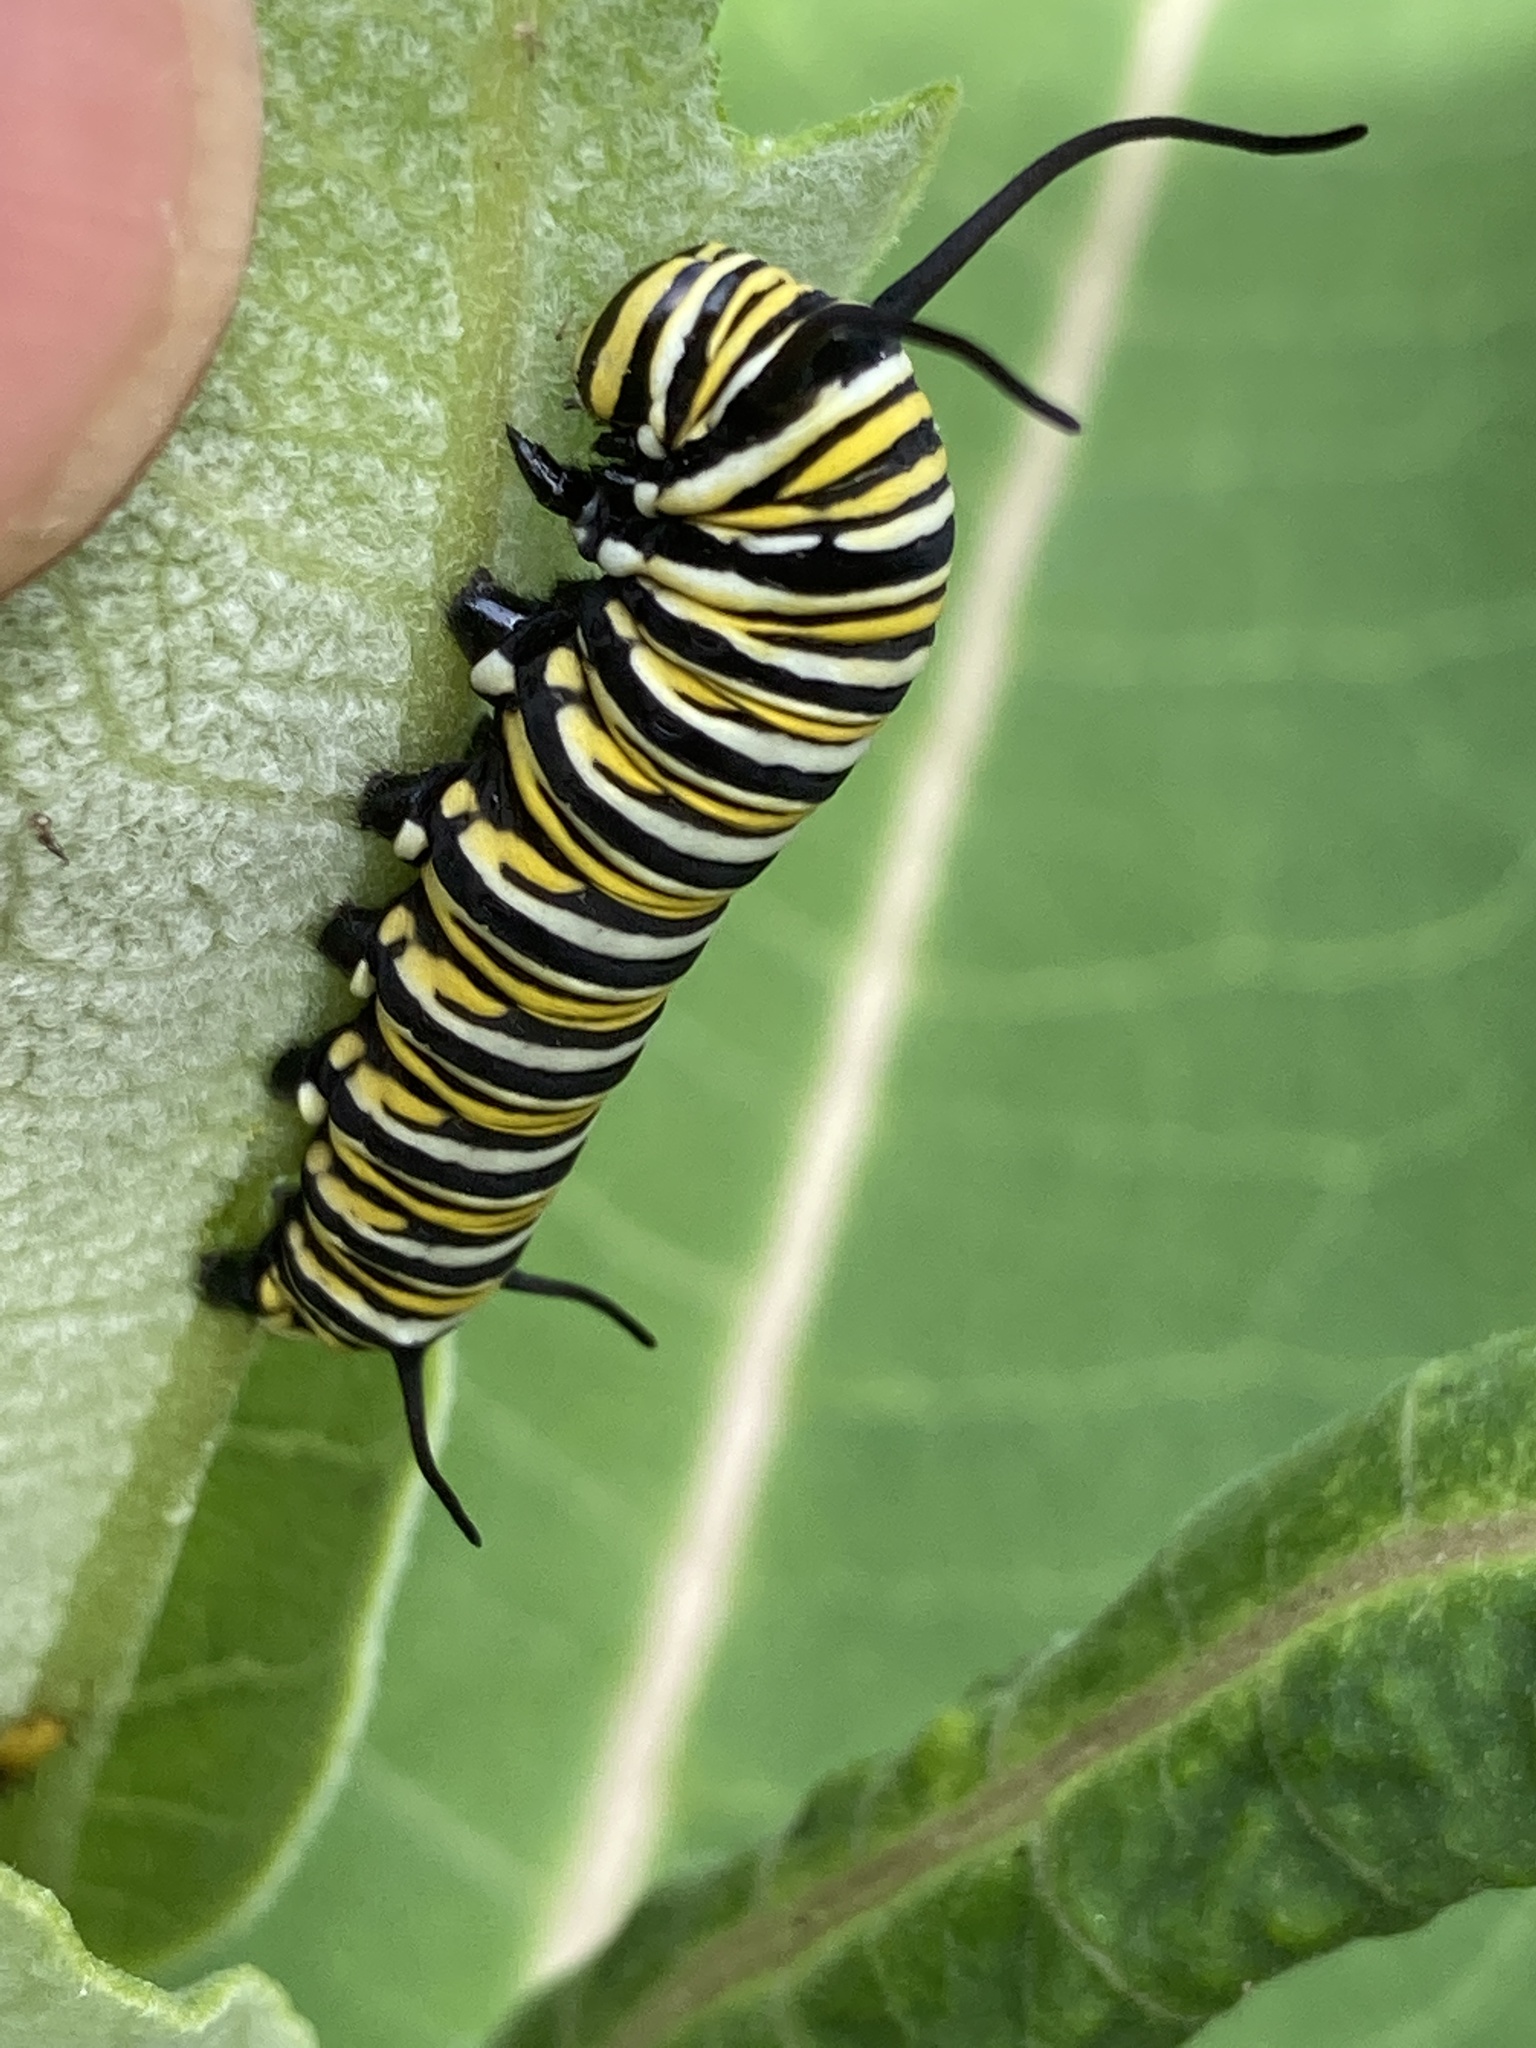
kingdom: Animalia
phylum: Arthropoda
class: Insecta
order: Lepidoptera
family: Nymphalidae
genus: Danaus
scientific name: Danaus plexippus
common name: Monarch
